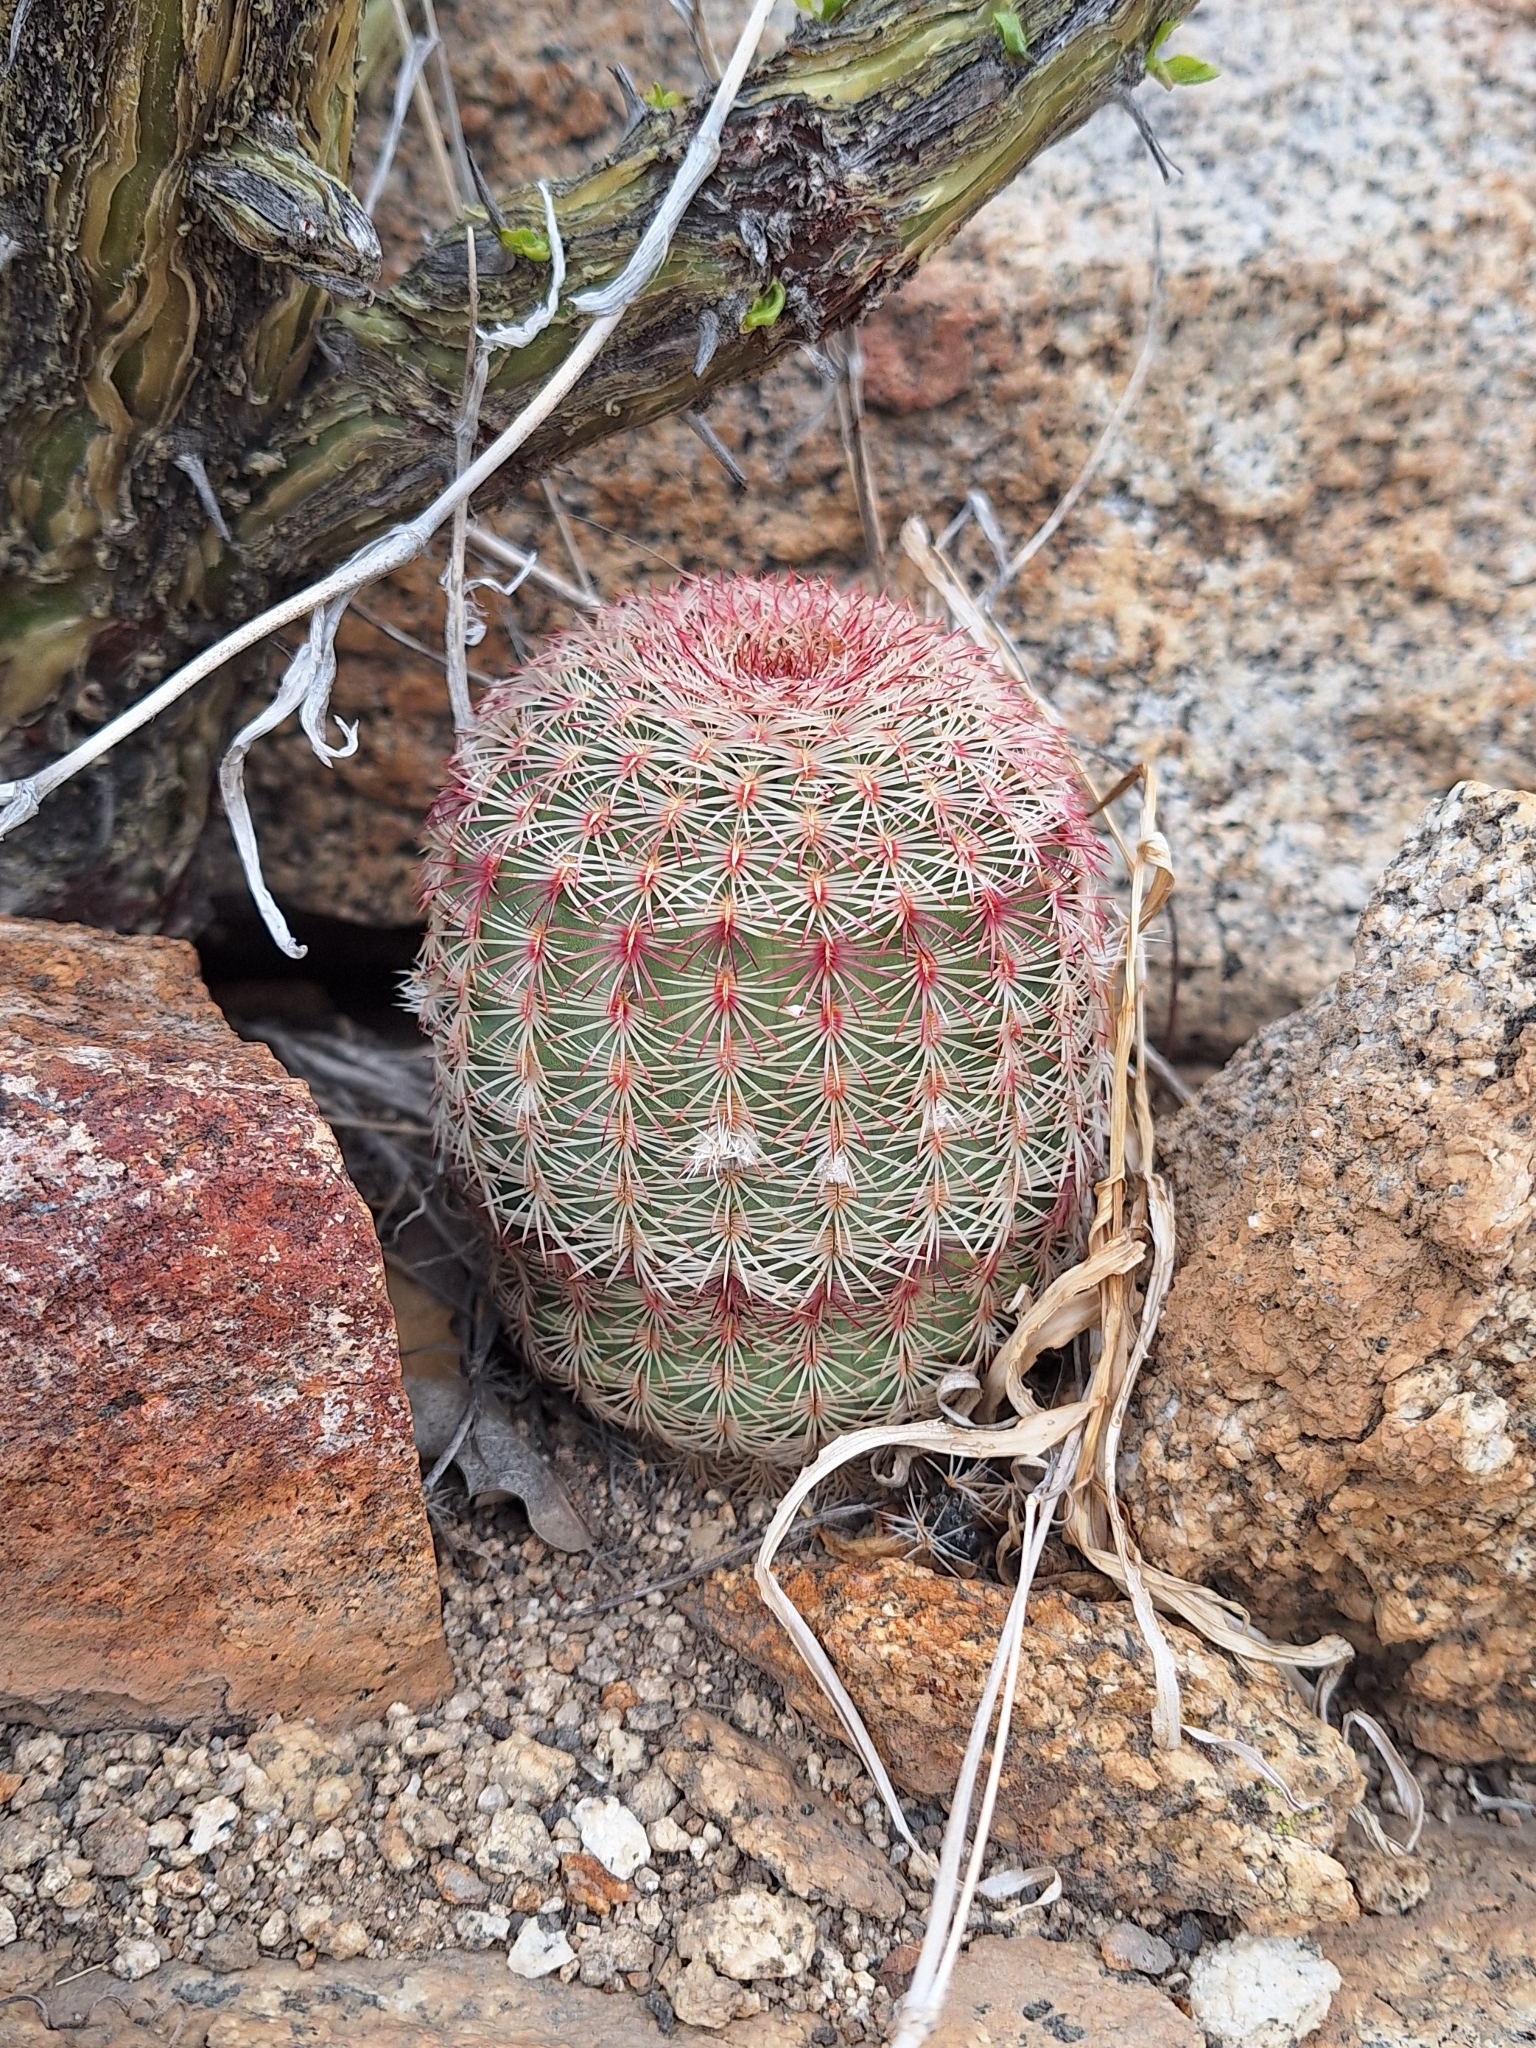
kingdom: Plantae
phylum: Tracheophyta
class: Magnoliopsida
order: Caryophyllales
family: Cactaceae
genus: Echinocereus
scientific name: Echinocereus rigidissimus
